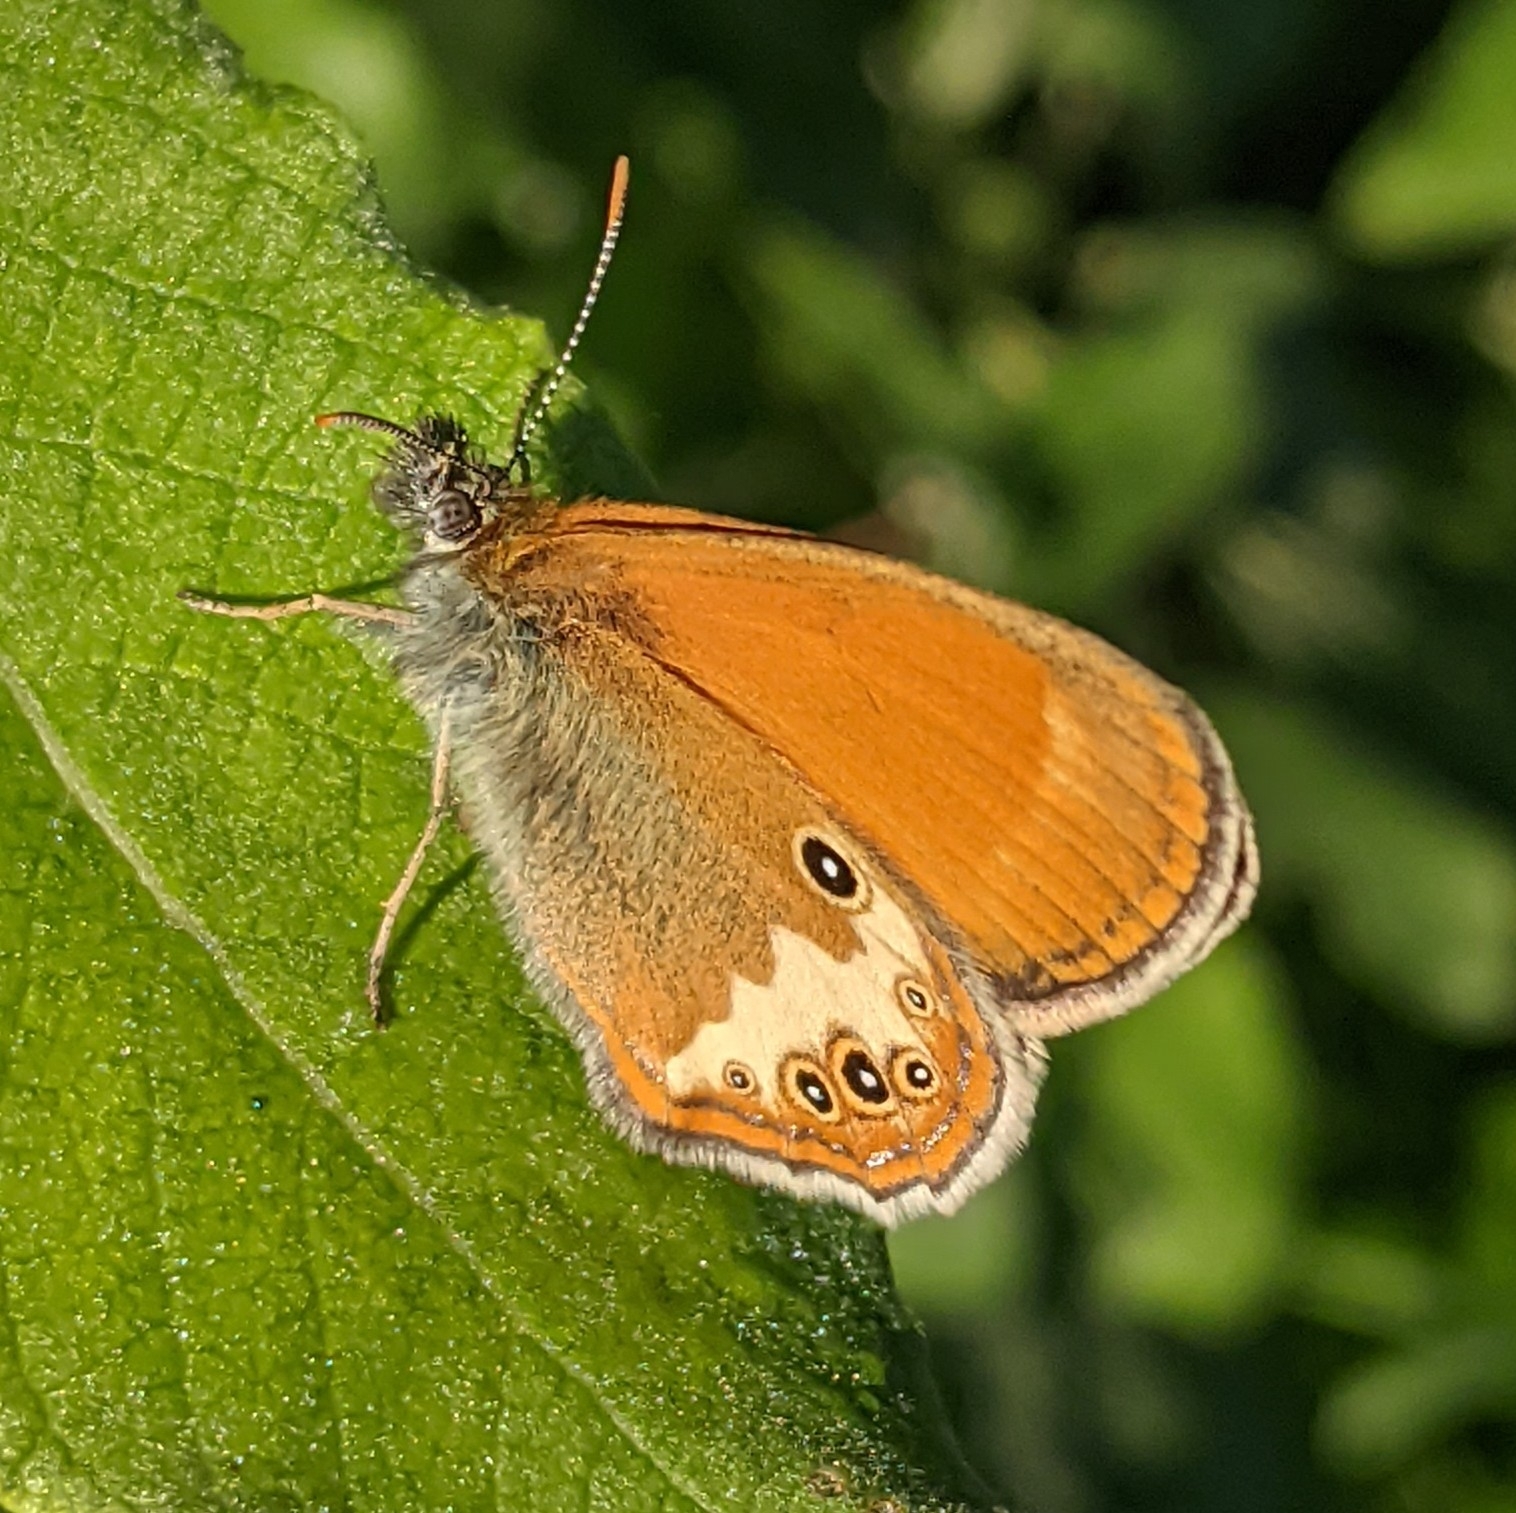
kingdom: Animalia
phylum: Arthropoda
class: Insecta
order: Lepidoptera
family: Nymphalidae
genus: Coenonympha
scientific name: Coenonympha arcania
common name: Pearly heath
